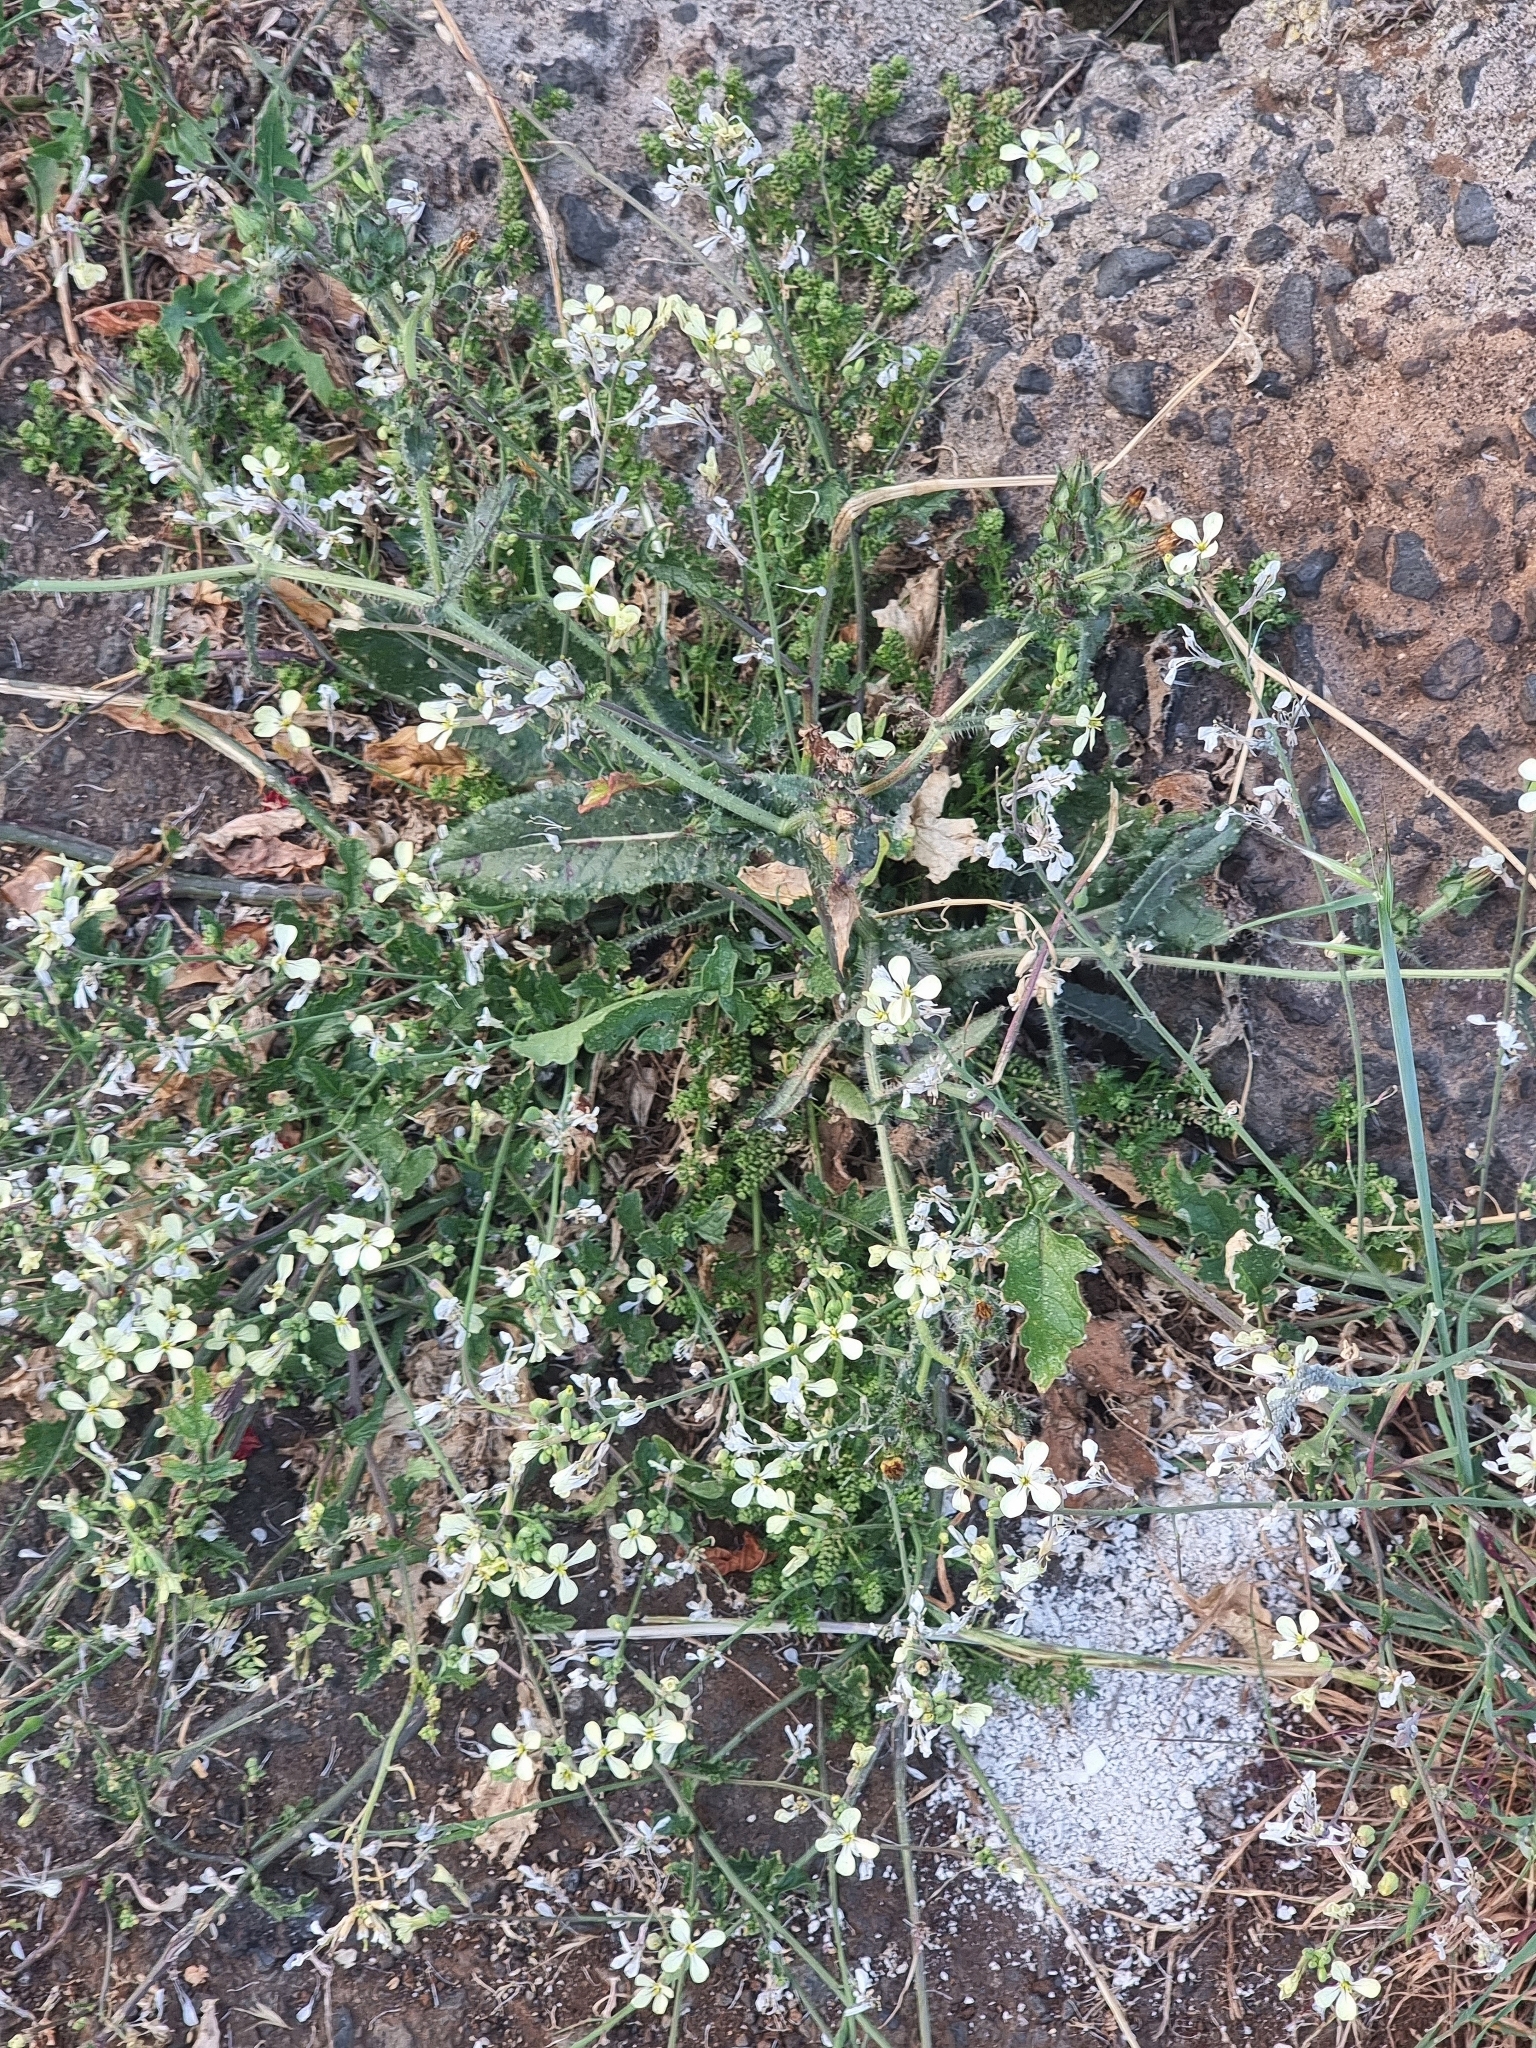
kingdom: Plantae
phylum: Tracheophyta
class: Magnoliopsida
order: Brassicales
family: Brassicaceae
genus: Raphanus
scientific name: Raphanus raphanistrum
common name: Wild radish
